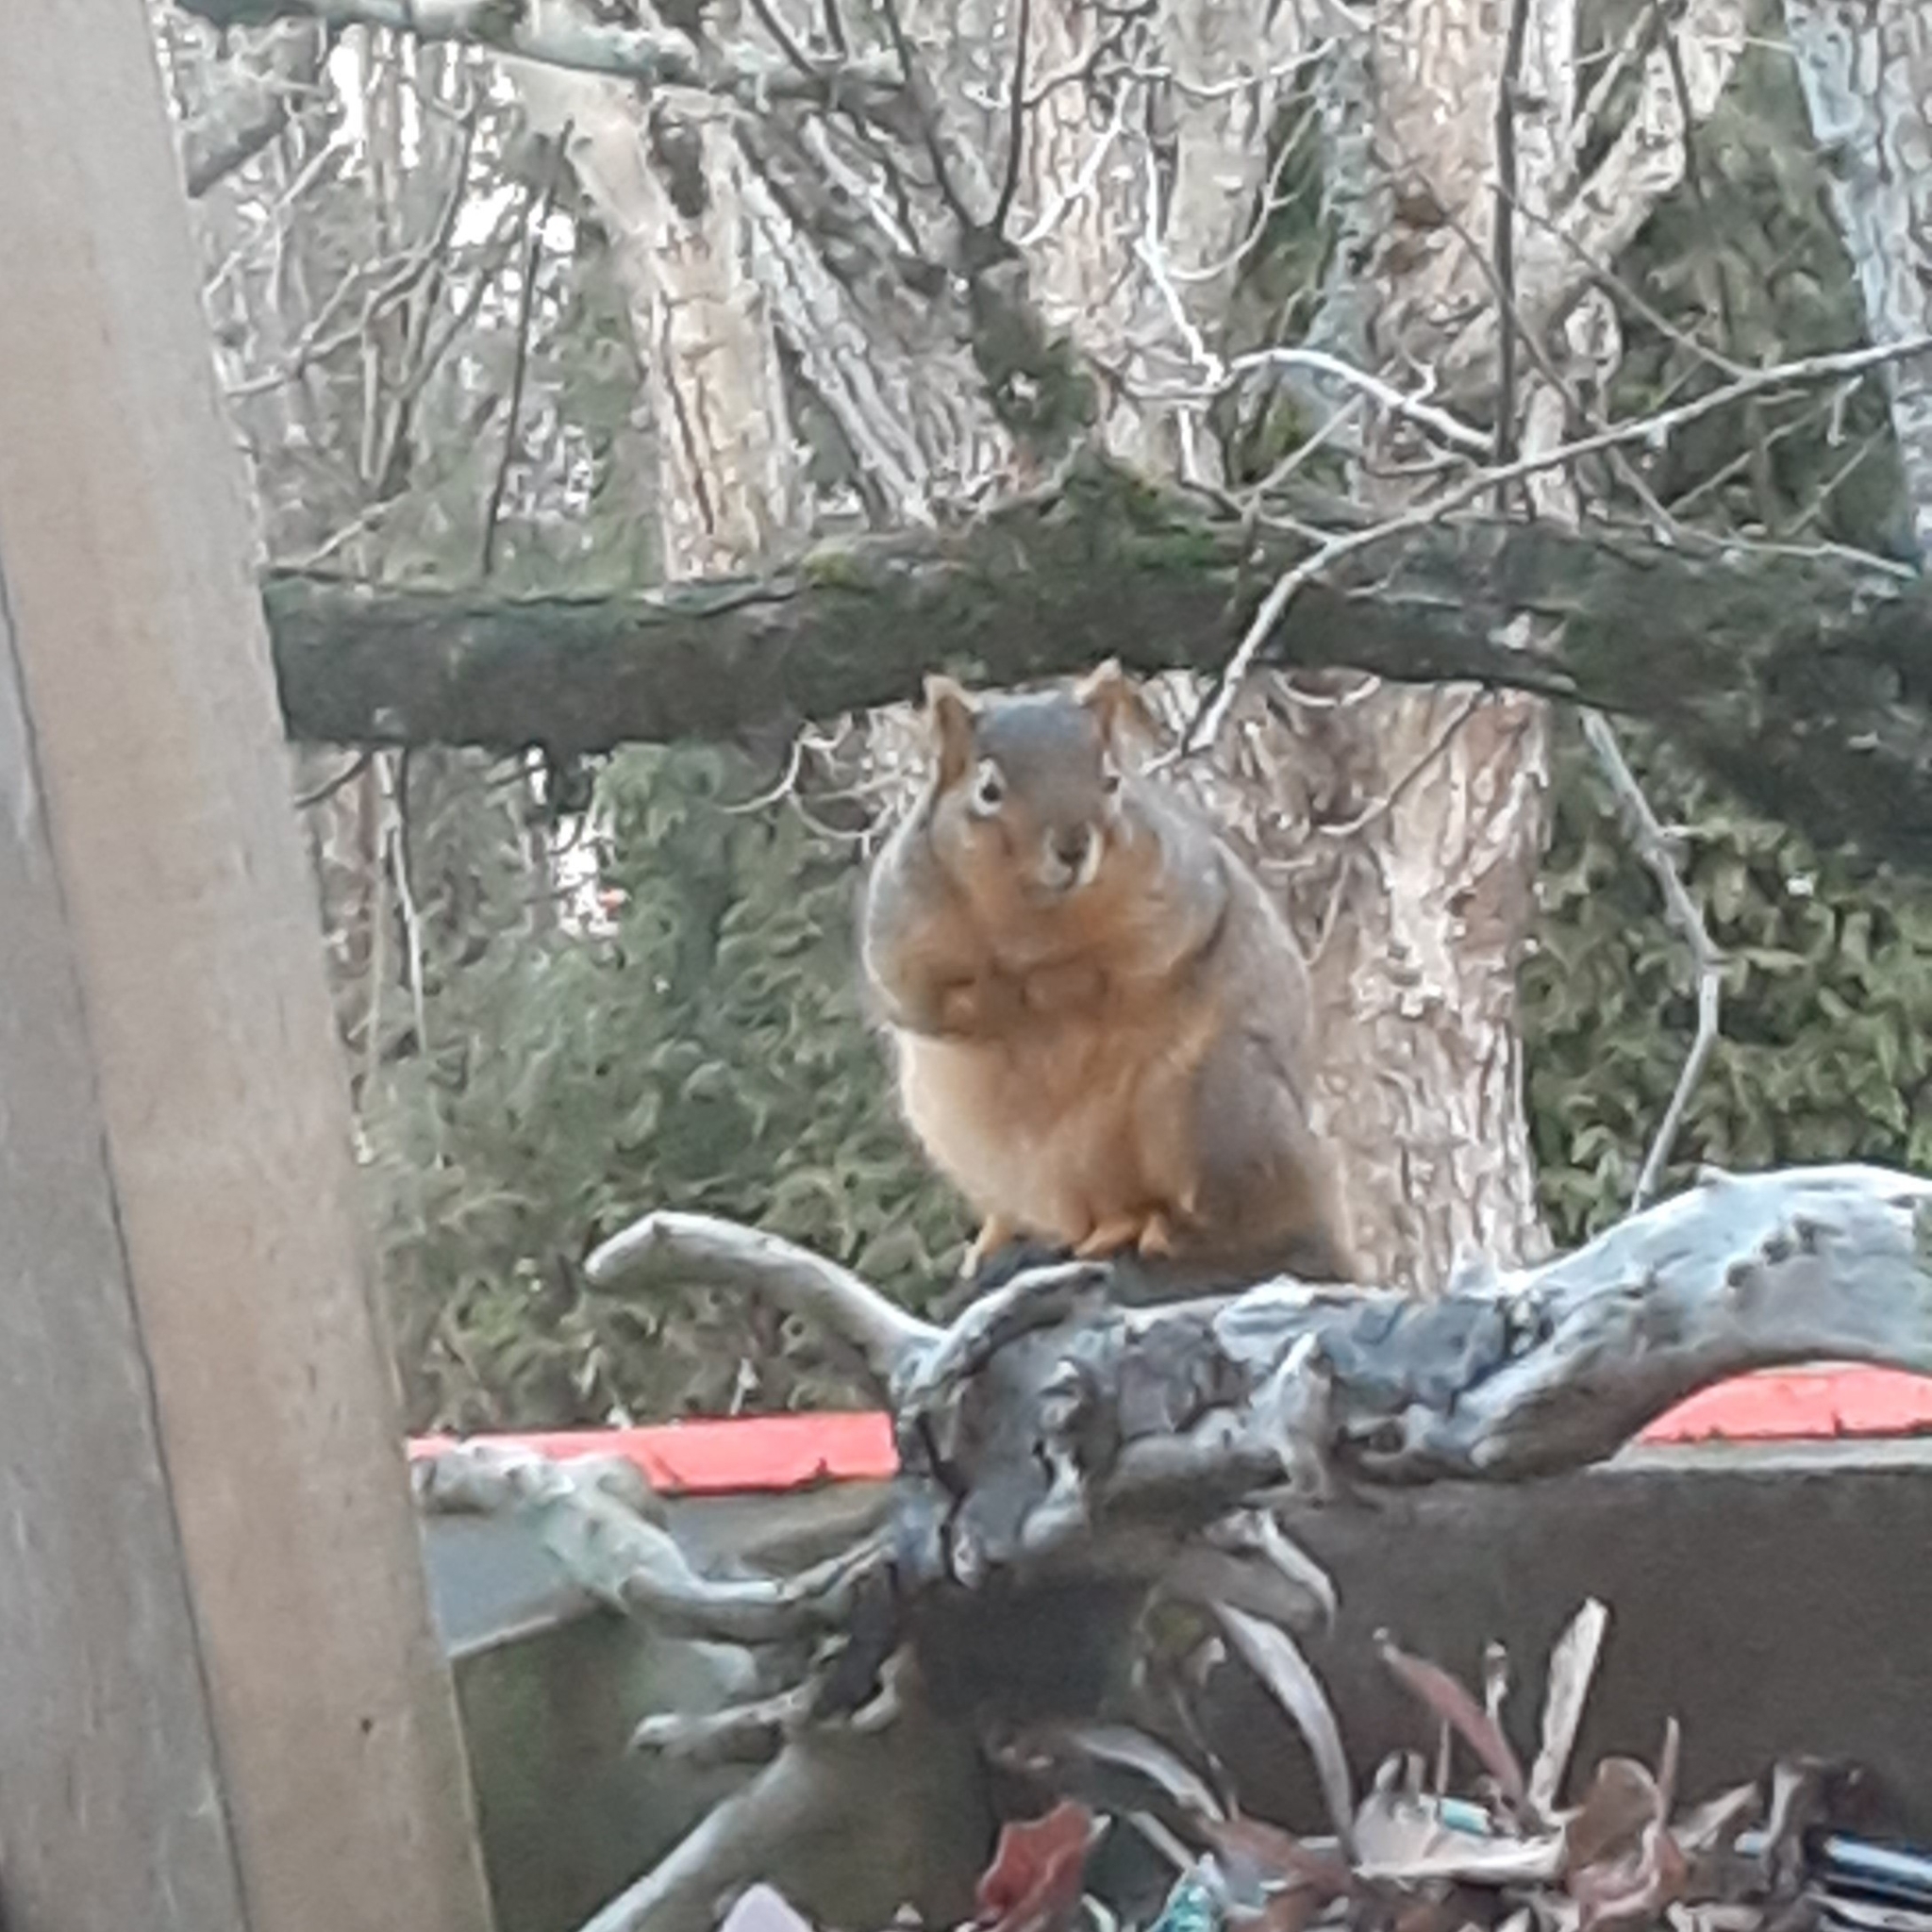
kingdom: Animalia
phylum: Chordata
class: Mammalia
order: Rodentia
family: Sciuridae
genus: Sciurus
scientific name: Sciurus niger
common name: Fox squirrel
